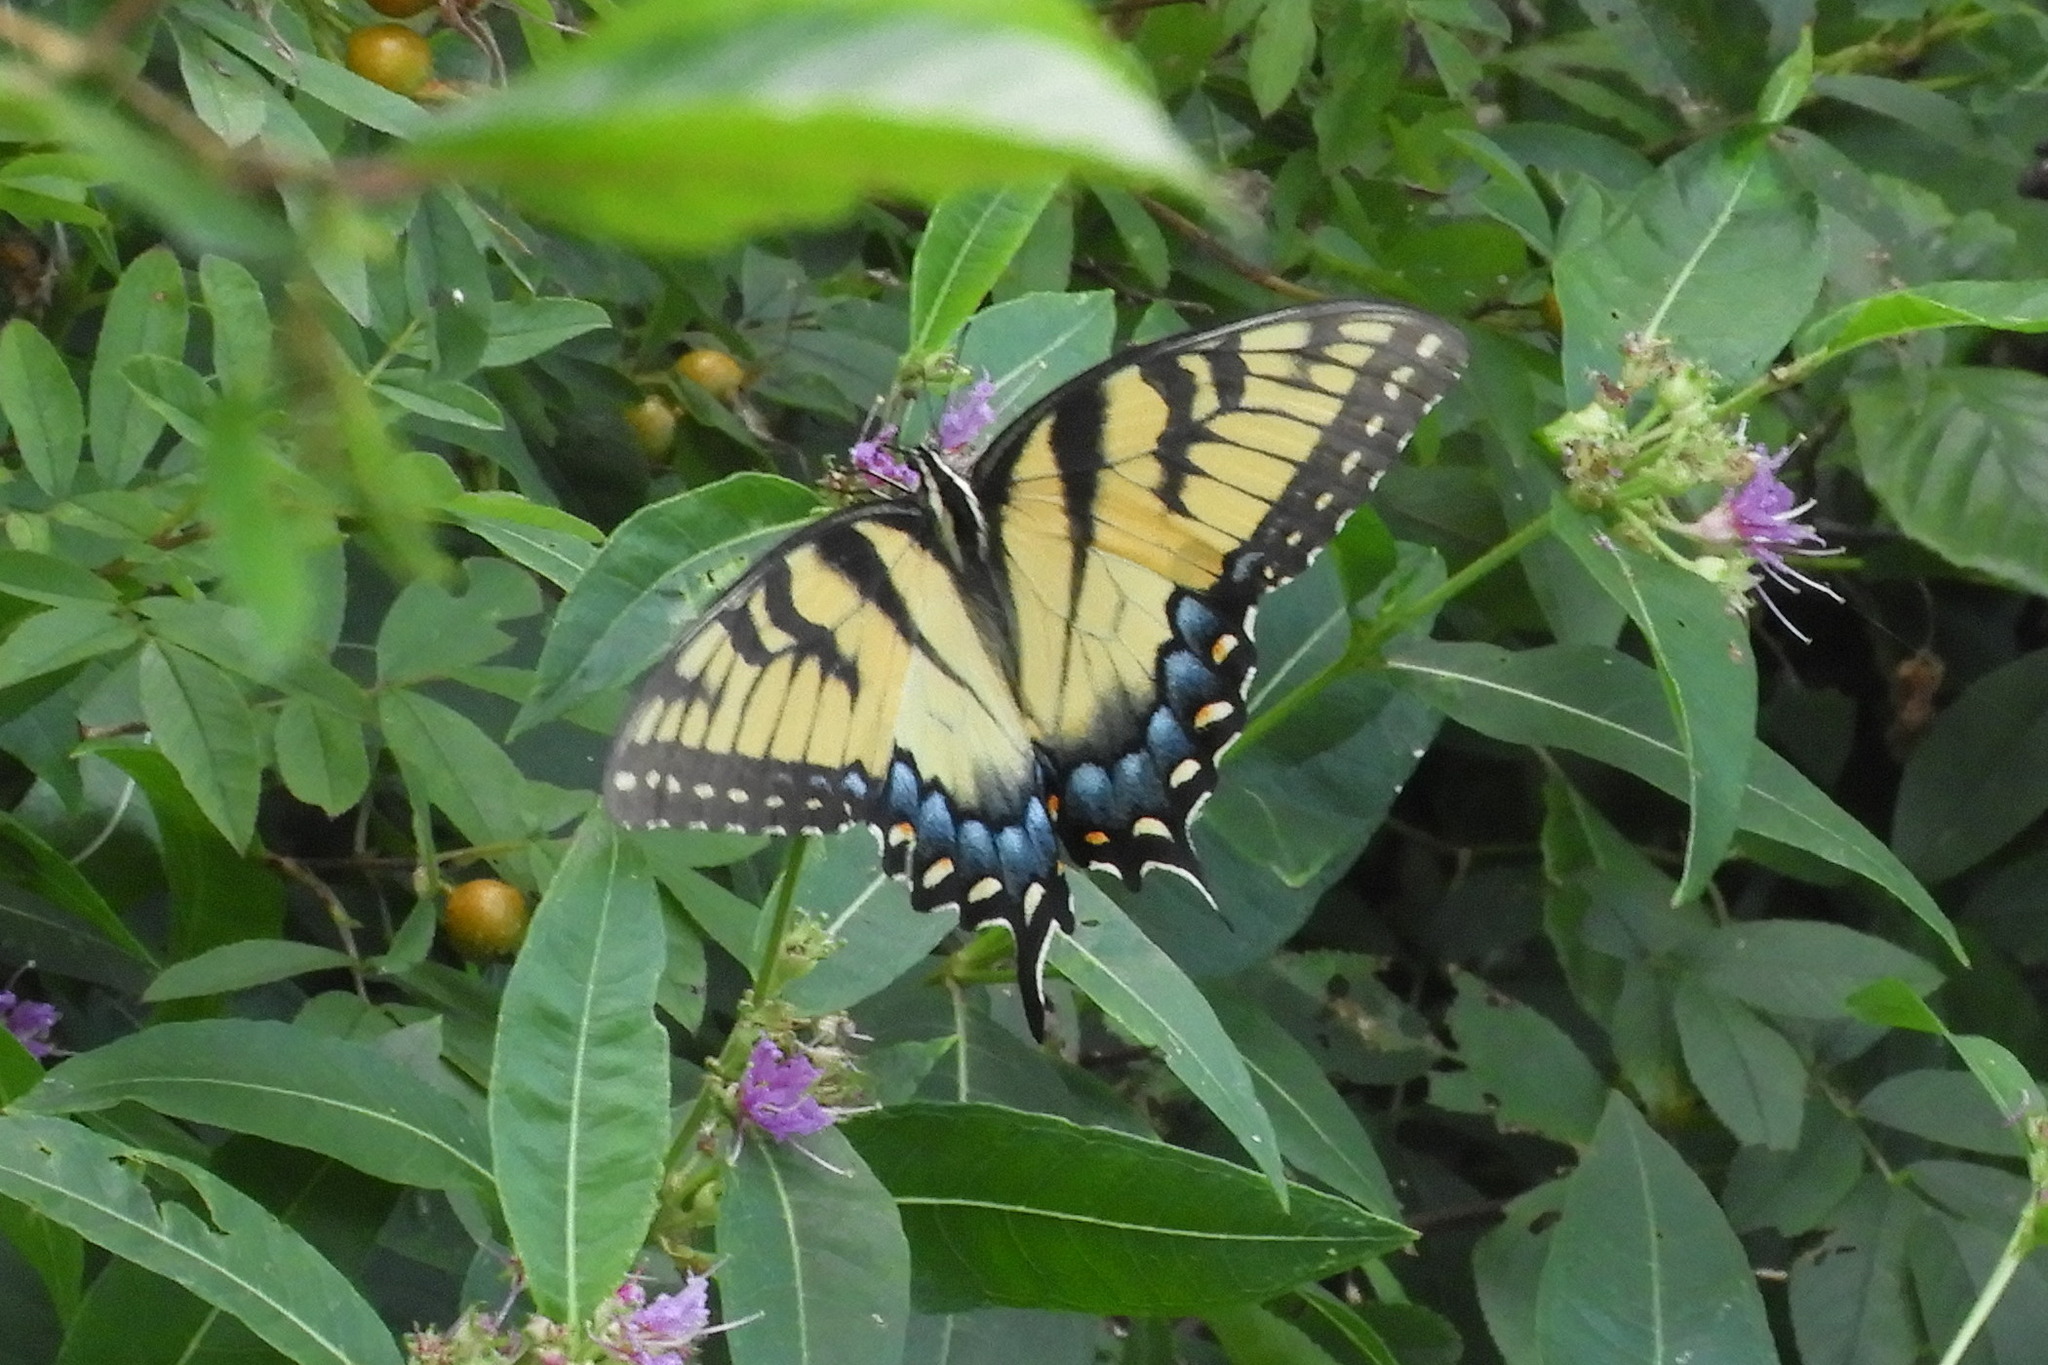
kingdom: Animalia
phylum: Arthropoda
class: Insecta
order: Lepidoptera
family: Papilionidae
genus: Papilio
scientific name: Papilio glaucus
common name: Tiger swallowtail
